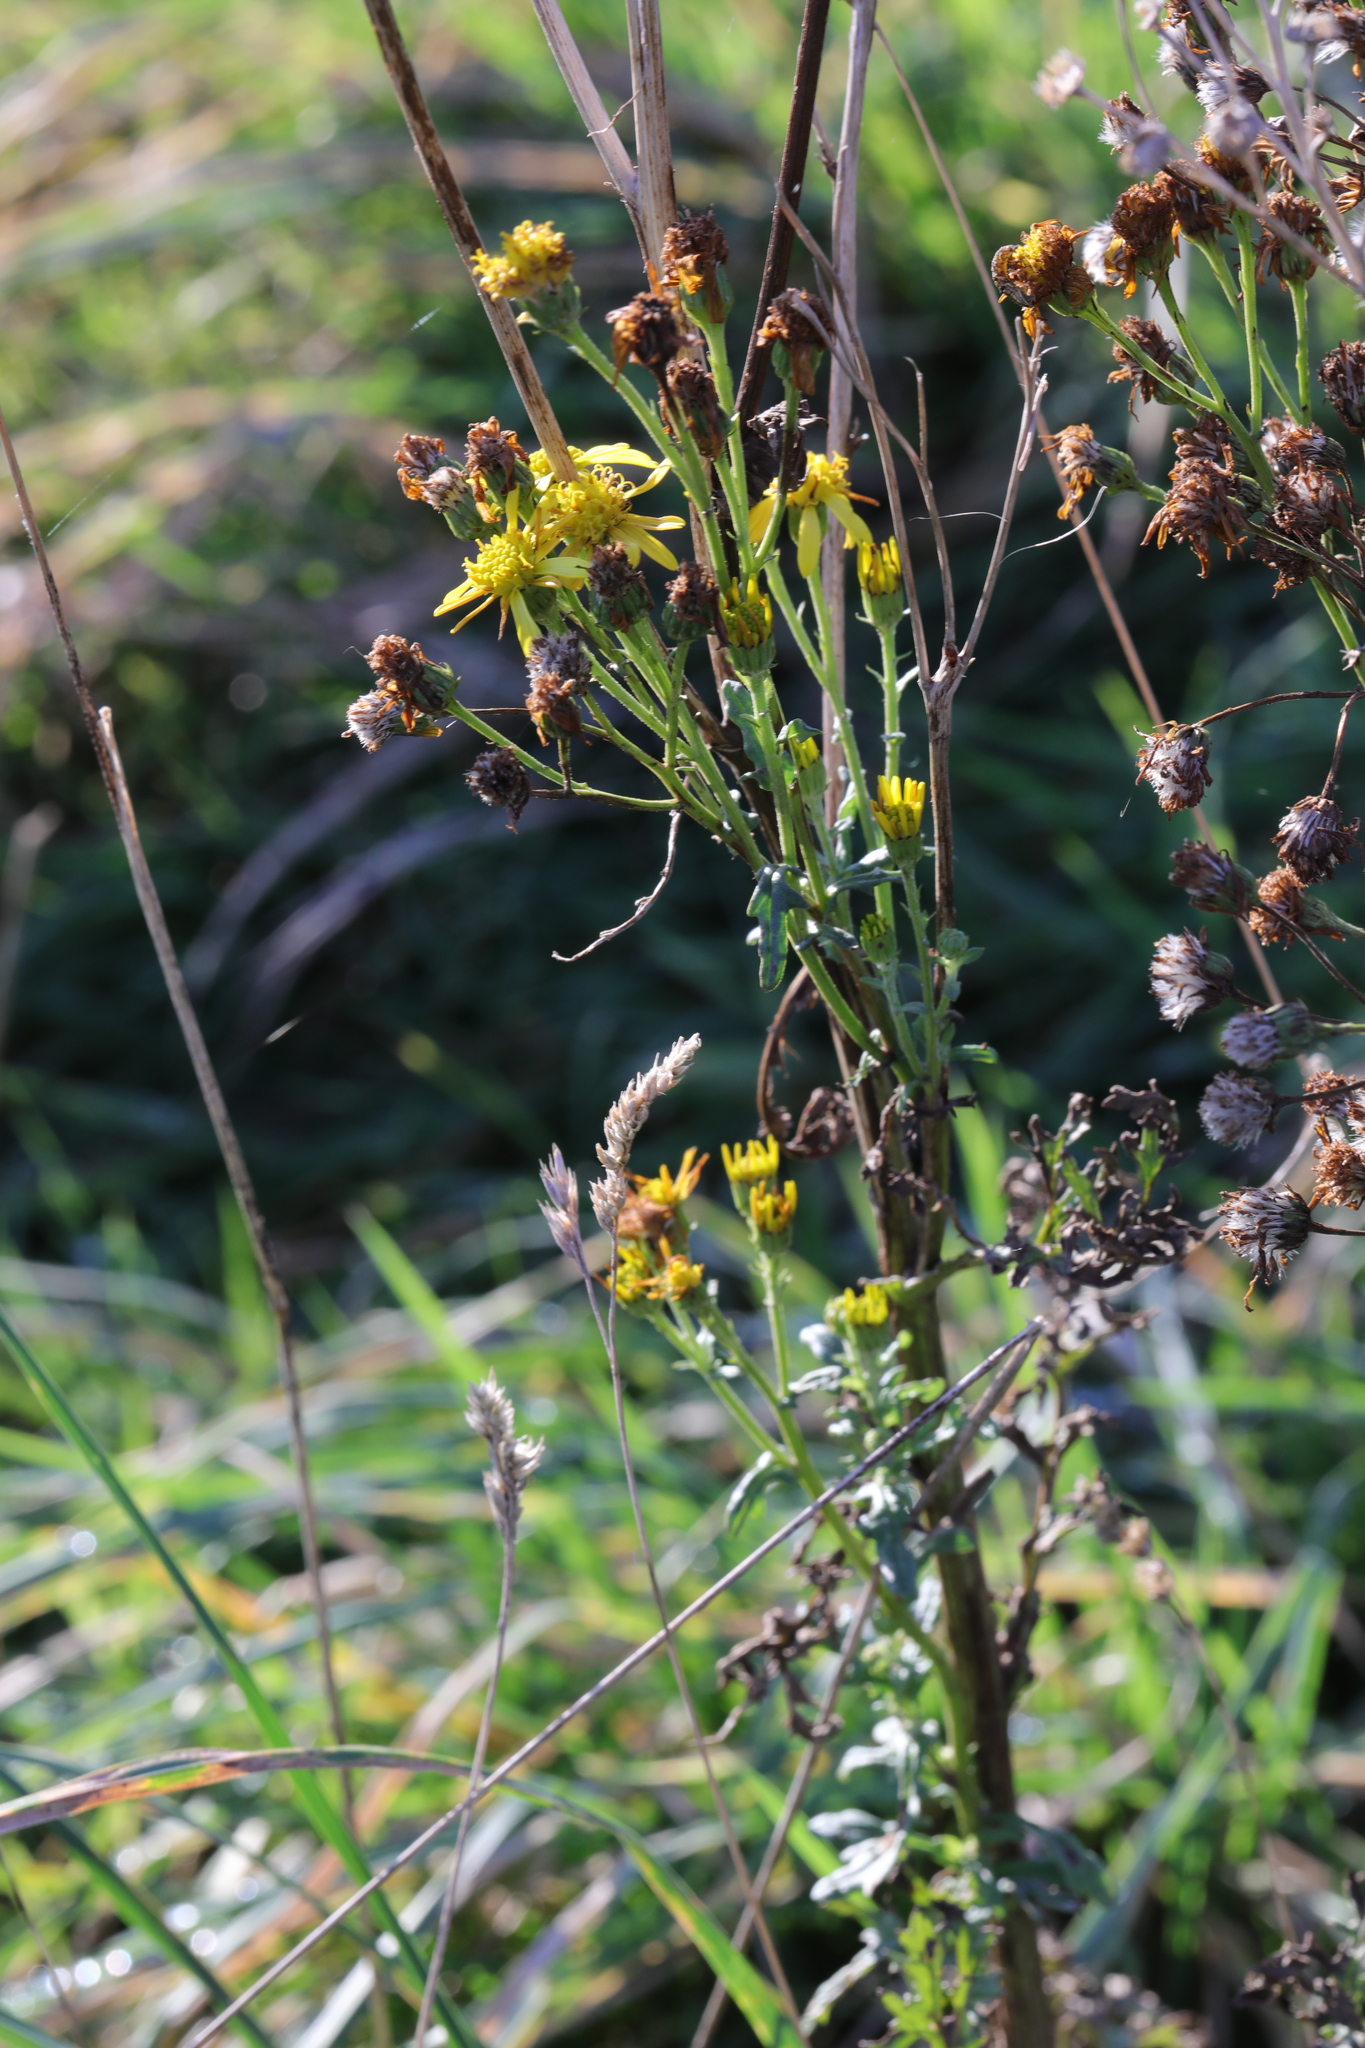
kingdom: Plantae
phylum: Tracheophyta
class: Magnoliopsida
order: Asterales
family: Asteraceae
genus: Jacobaea
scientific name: Jacobaea vulgaris
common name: Stinking willie
